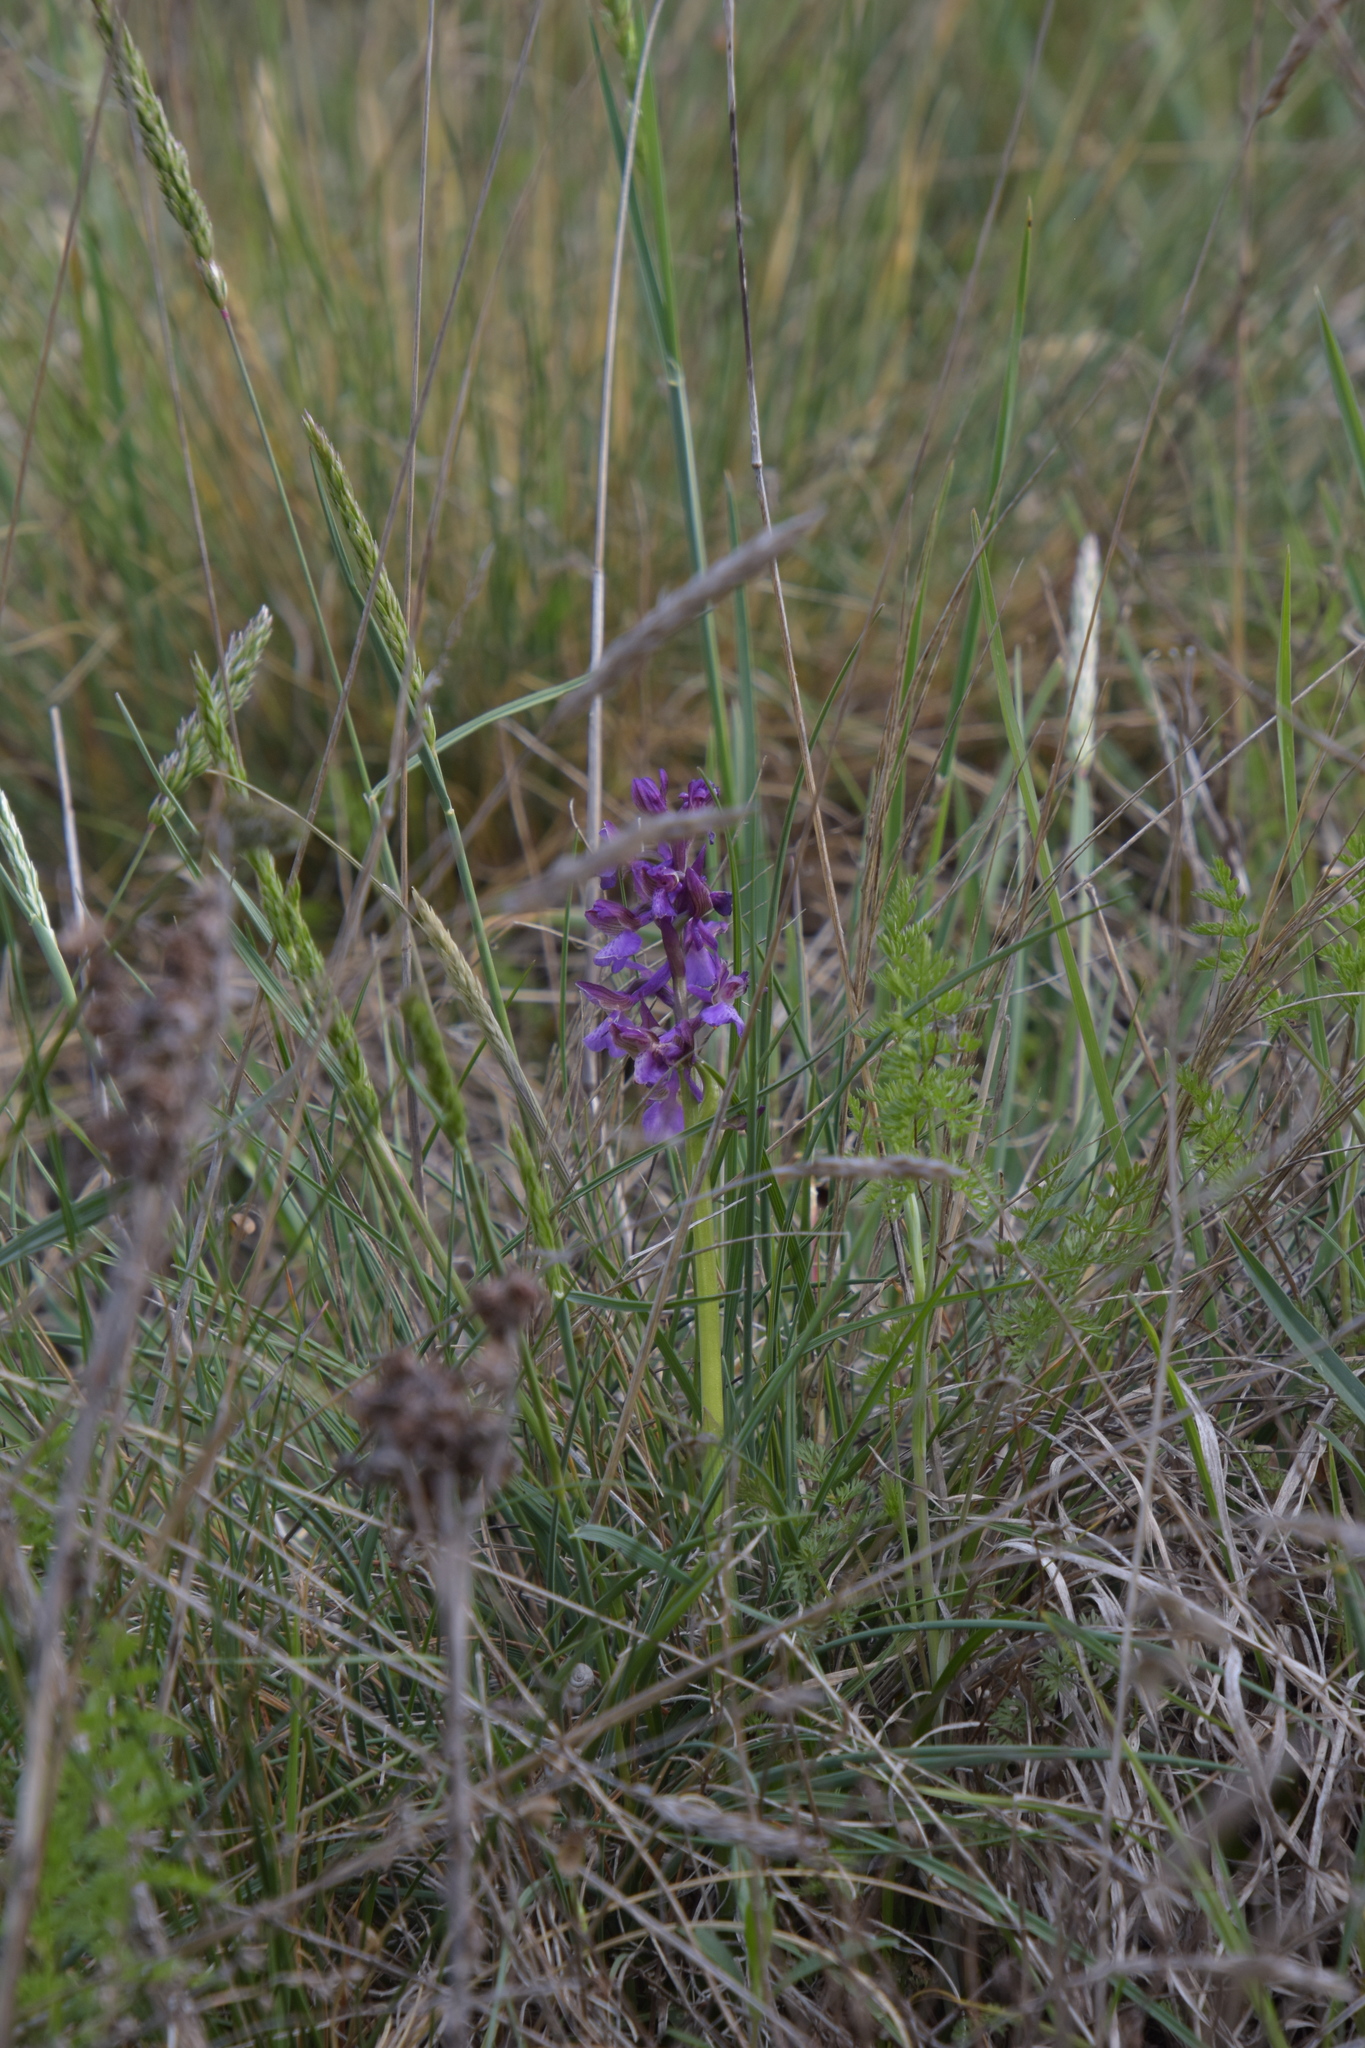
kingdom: Plantae
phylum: Tracheophyta
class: Liliopsida
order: Asparagales
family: Orchidaceae
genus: Anacamptis
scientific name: Anacamptis morio
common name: Green-winged orchid
